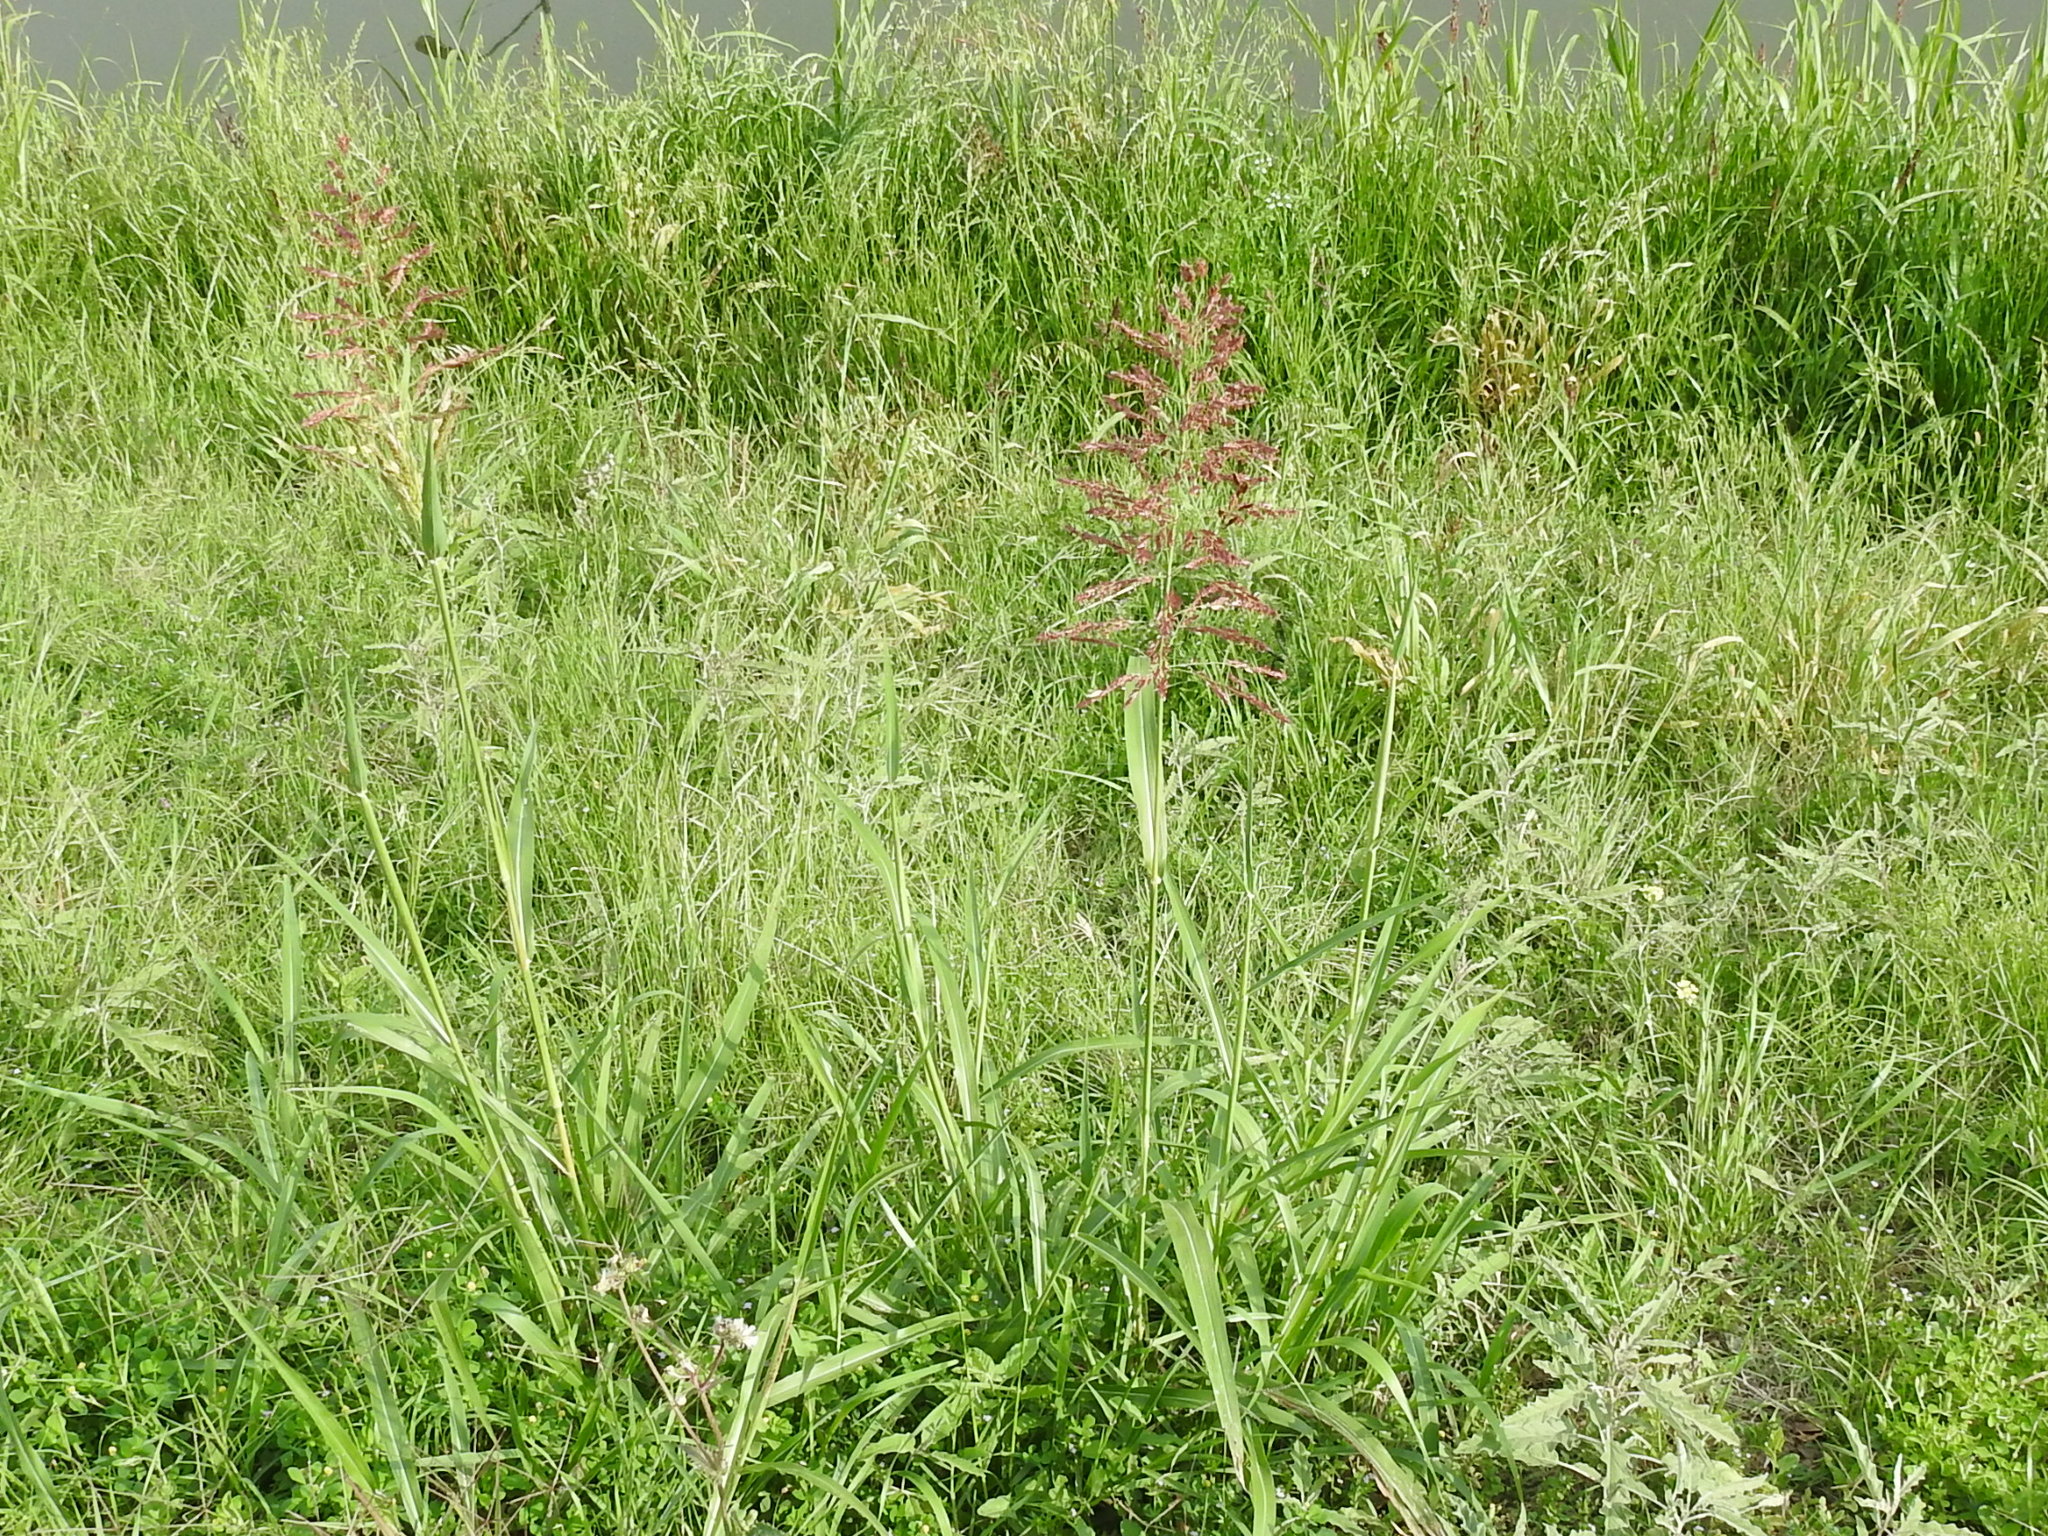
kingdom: Plantae
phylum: Tracheophyta
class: Liliopsida
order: Poales
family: Poaceae
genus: Sorghum
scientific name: Sorghum halepense
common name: Johnson-grass
